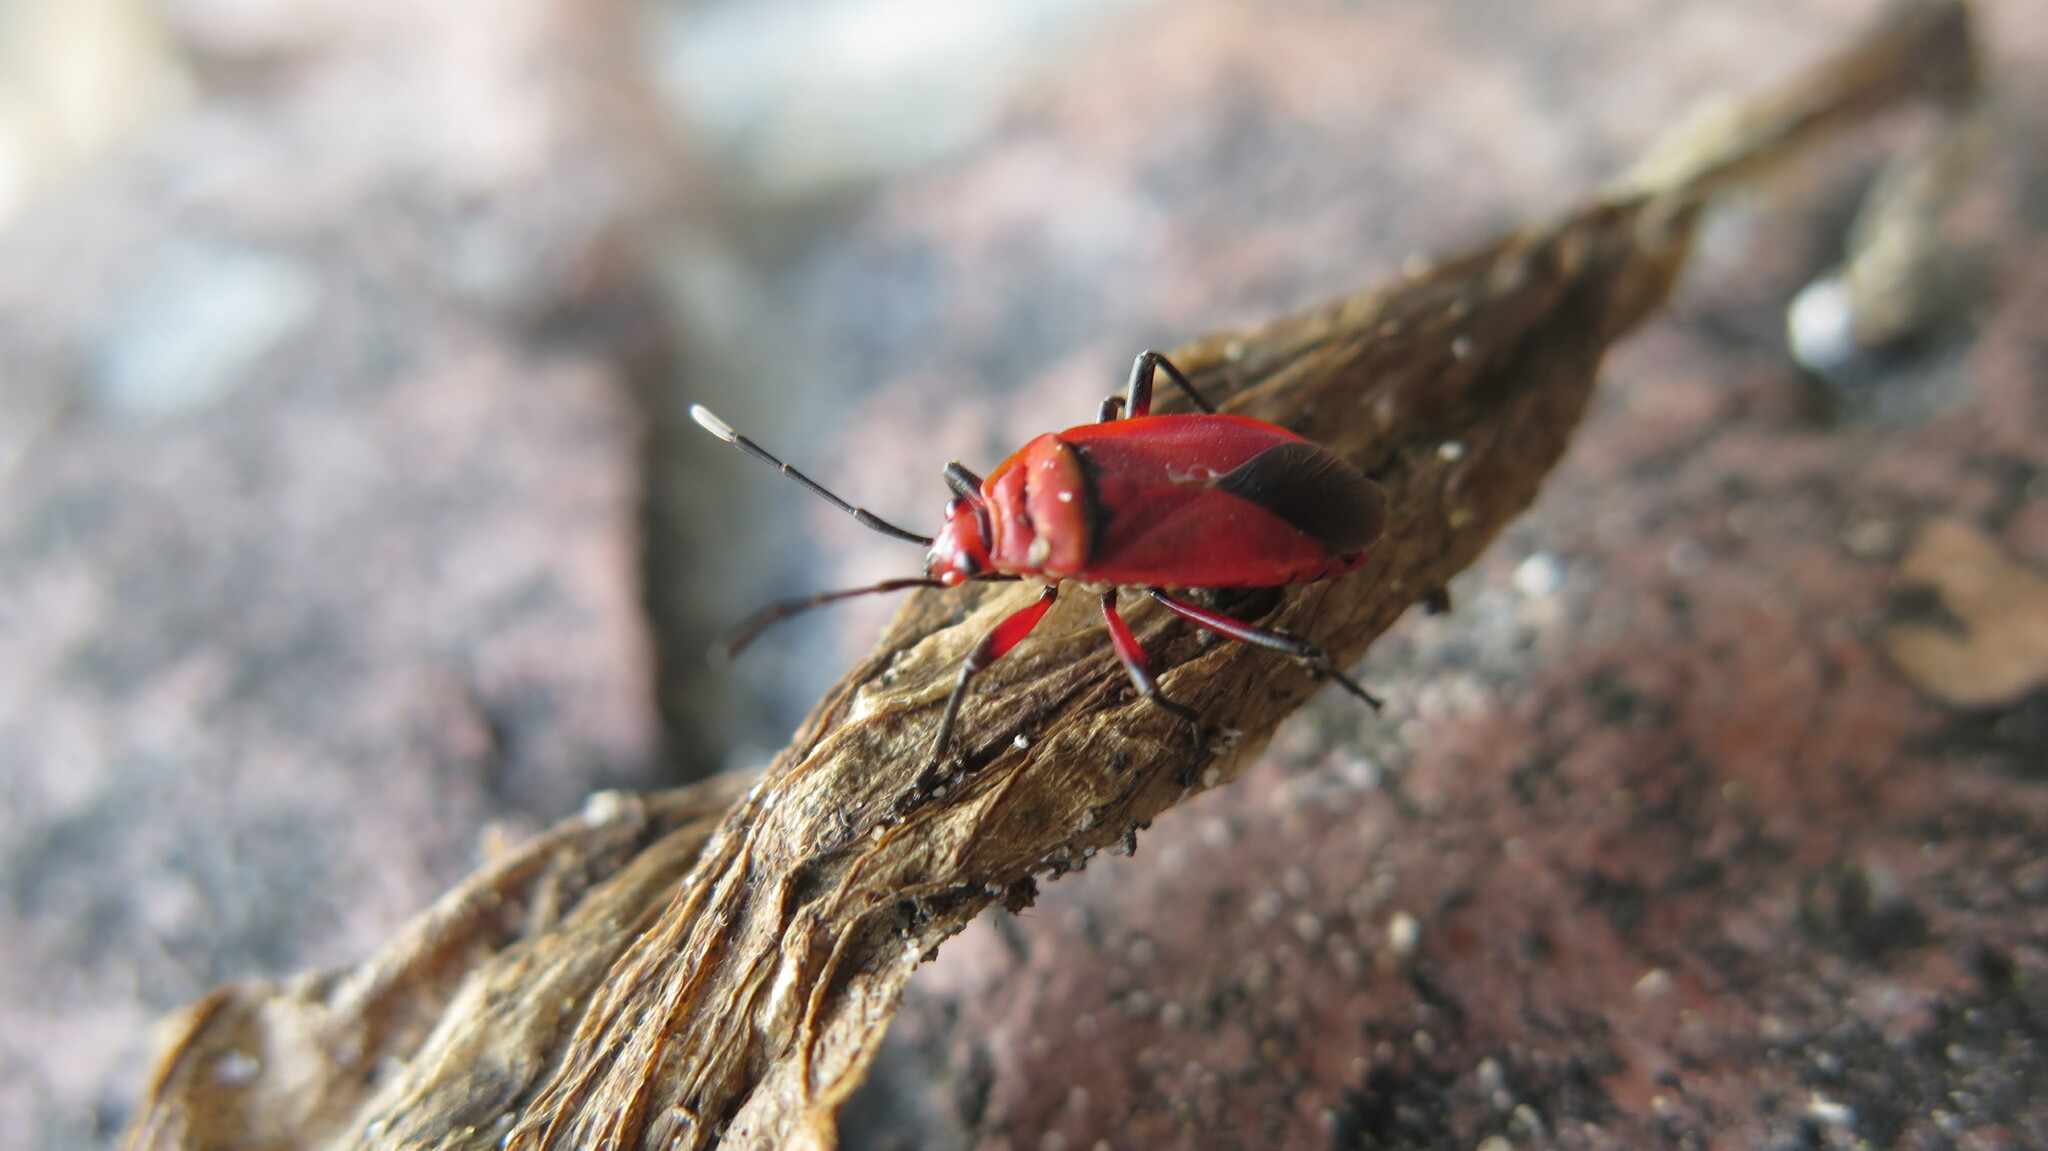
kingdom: Animalia
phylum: Arthropoda
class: Insecta
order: Hemiptera
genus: Cenaeus
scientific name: Cenaeus
